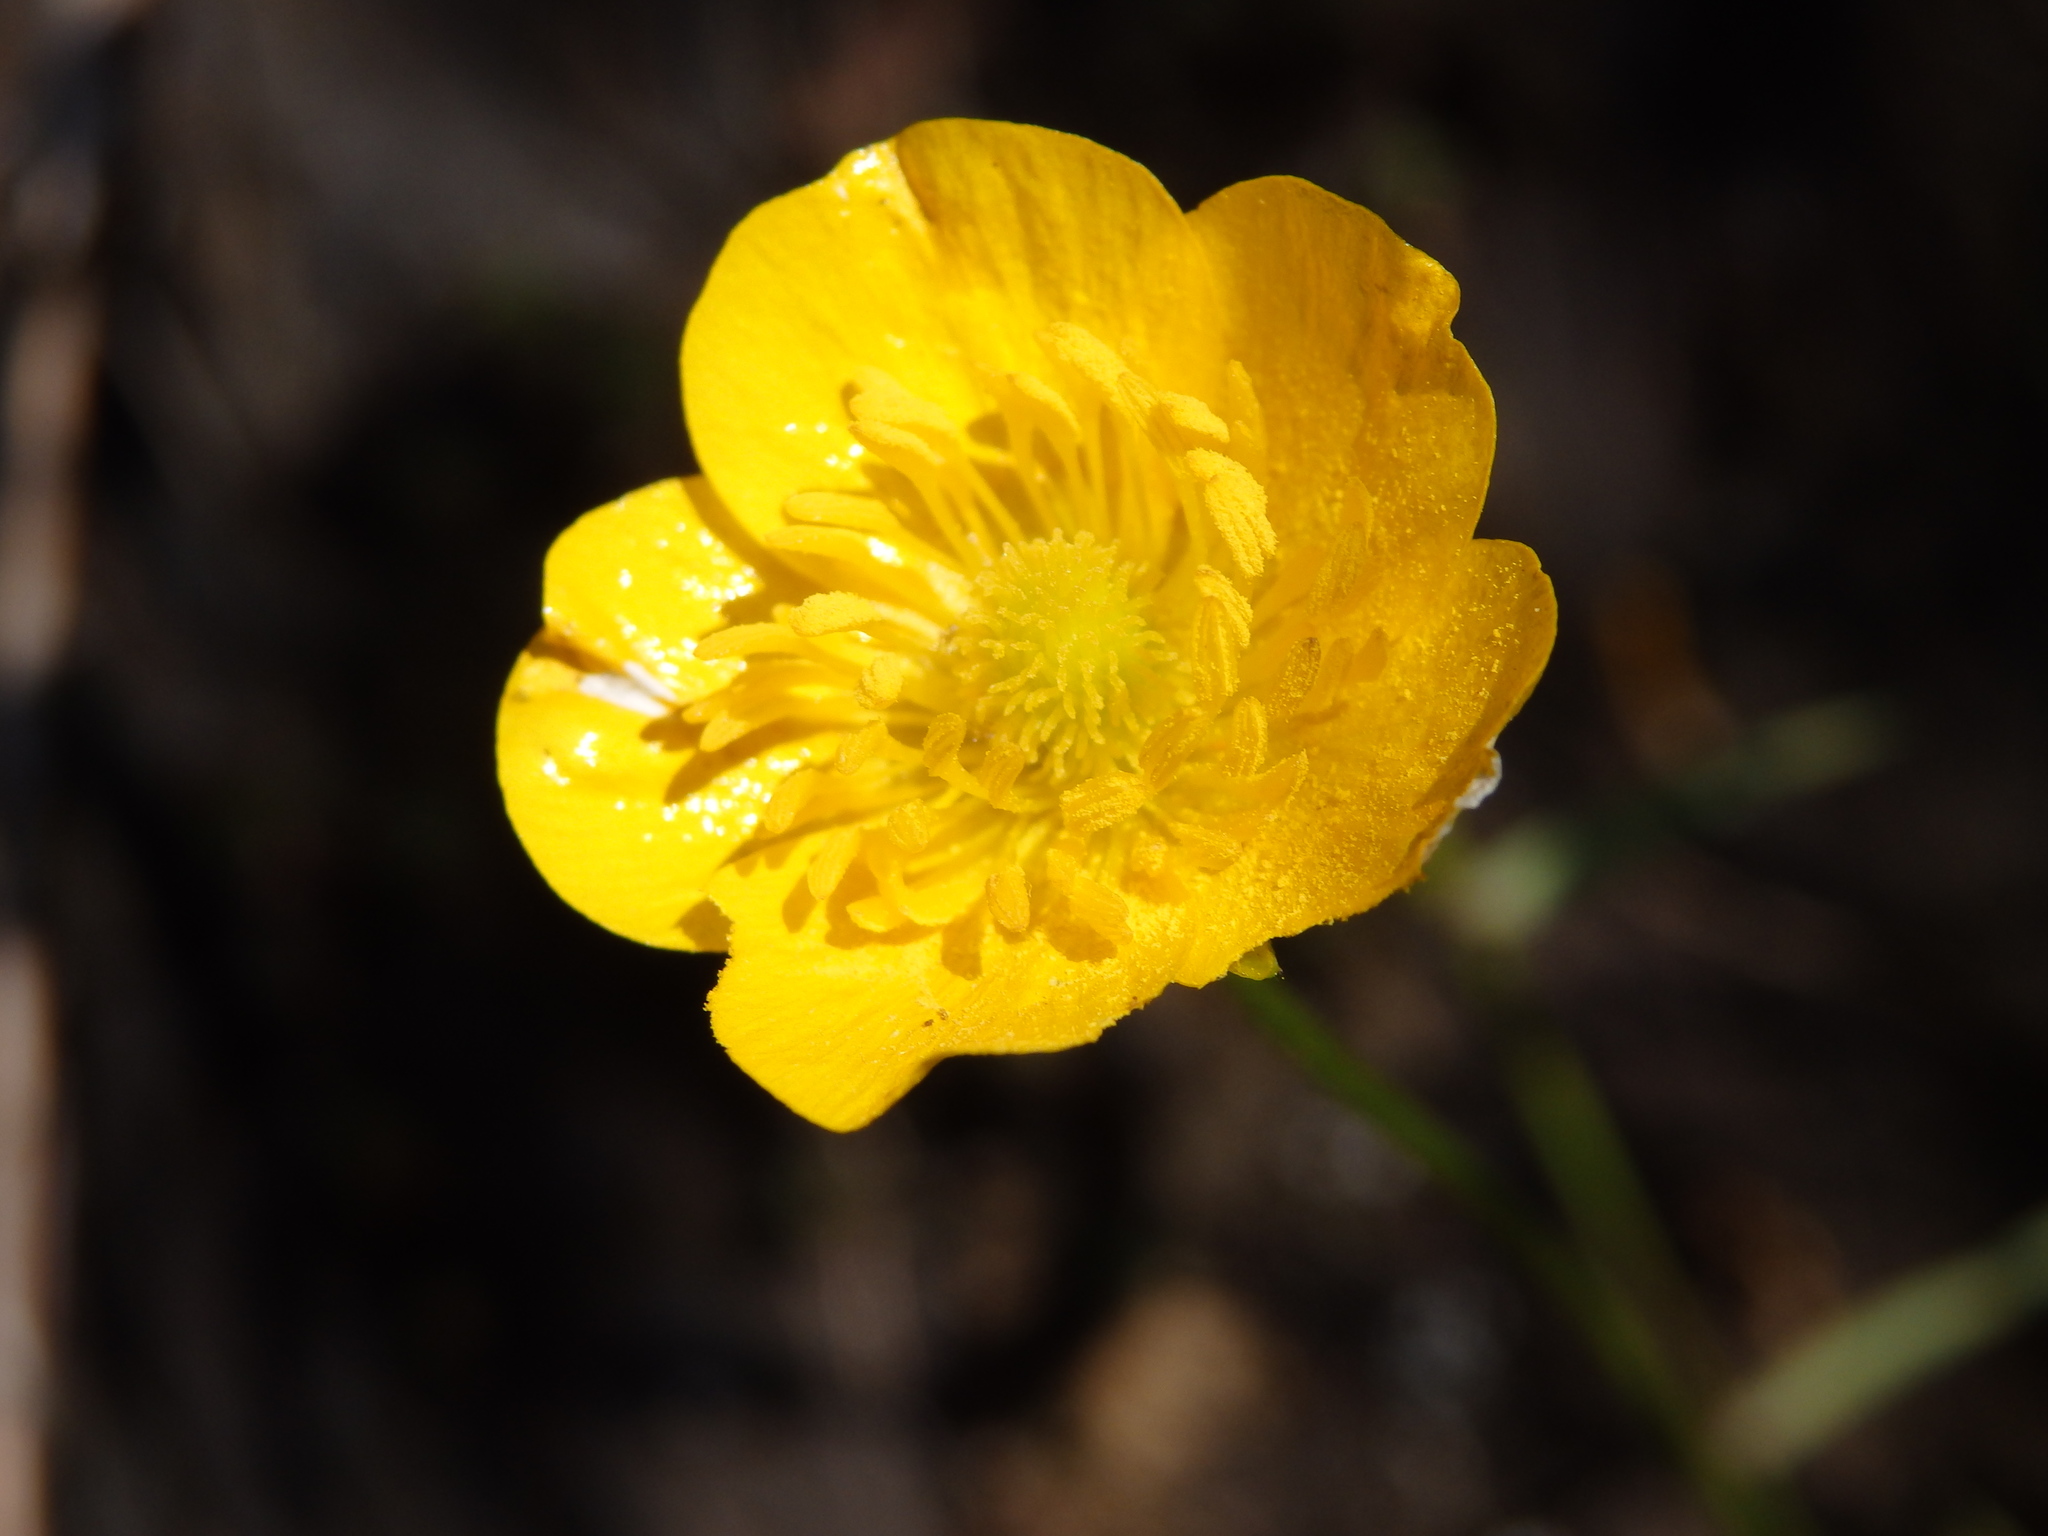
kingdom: Plantae
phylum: Tracheophyta
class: Magnoliopsida
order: Ranunculales
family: Ranunculaceae
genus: Ranunculus
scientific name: Ranunculus paludosus
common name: Jersey buttercup
